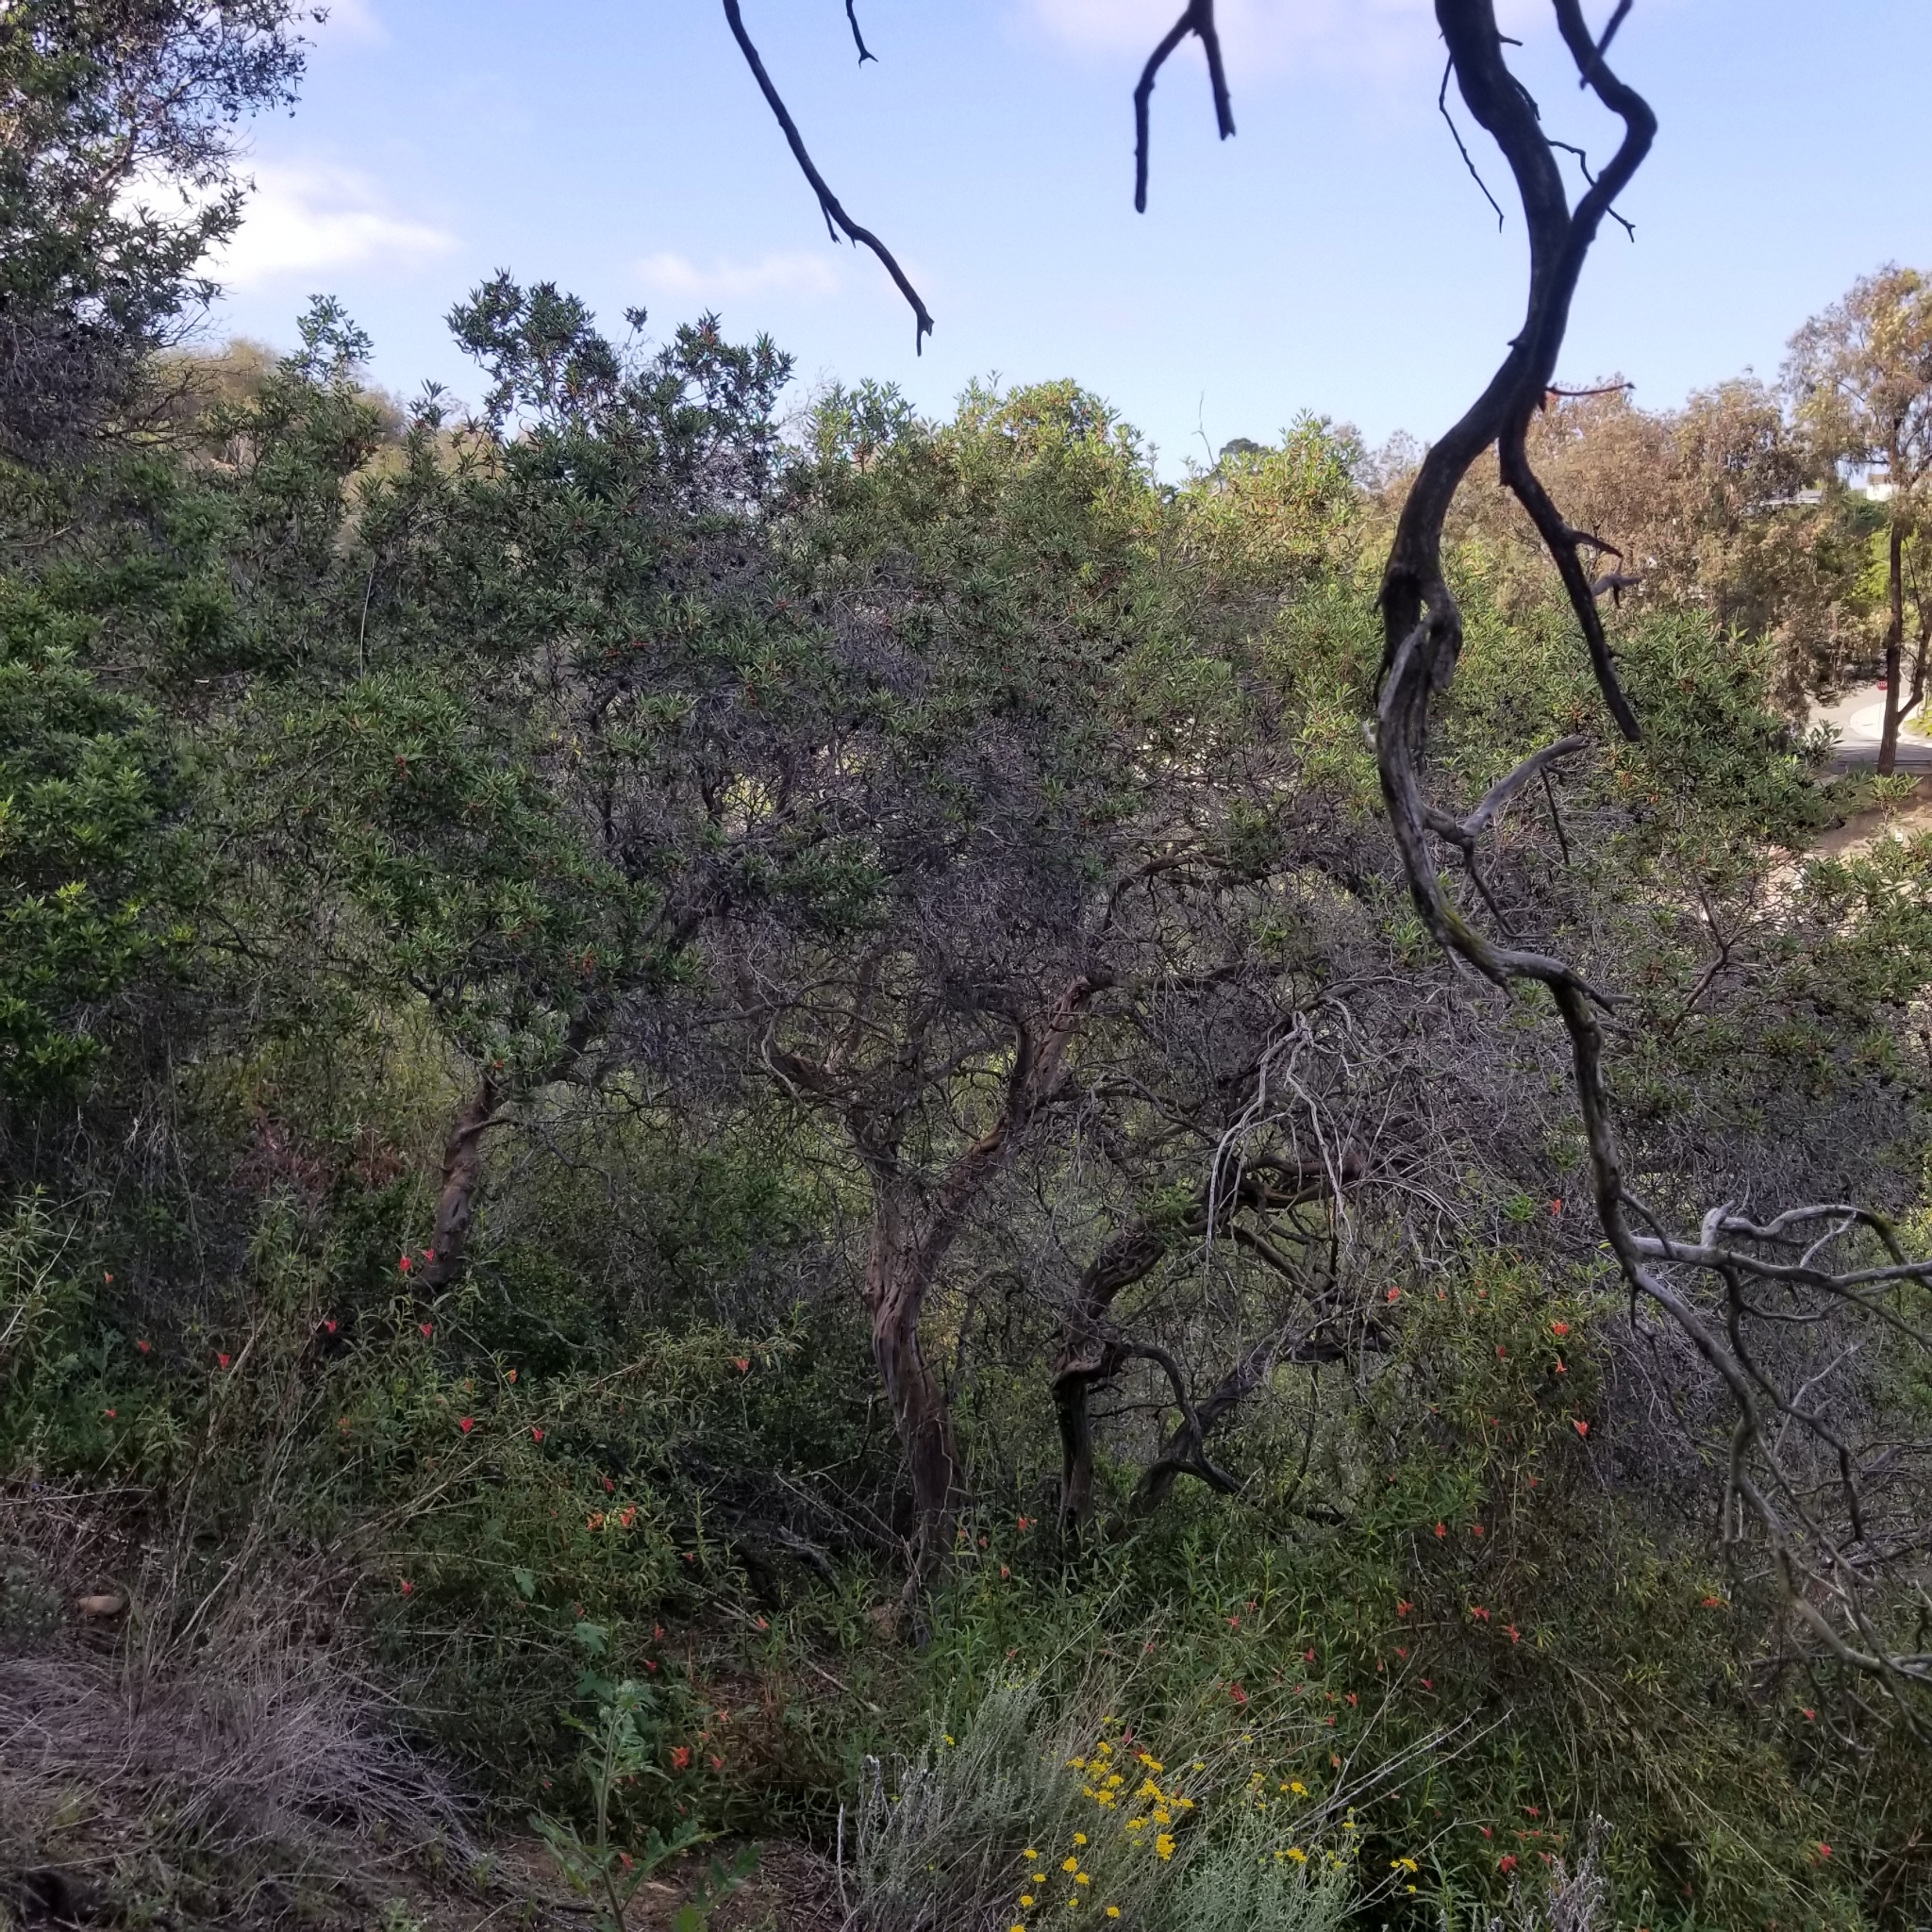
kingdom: Plantae
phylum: Tracheophyta
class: Magnoliopsida
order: Ericales
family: Ericaceae
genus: Arctostaphylos
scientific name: Arctostaphylos bicolor
